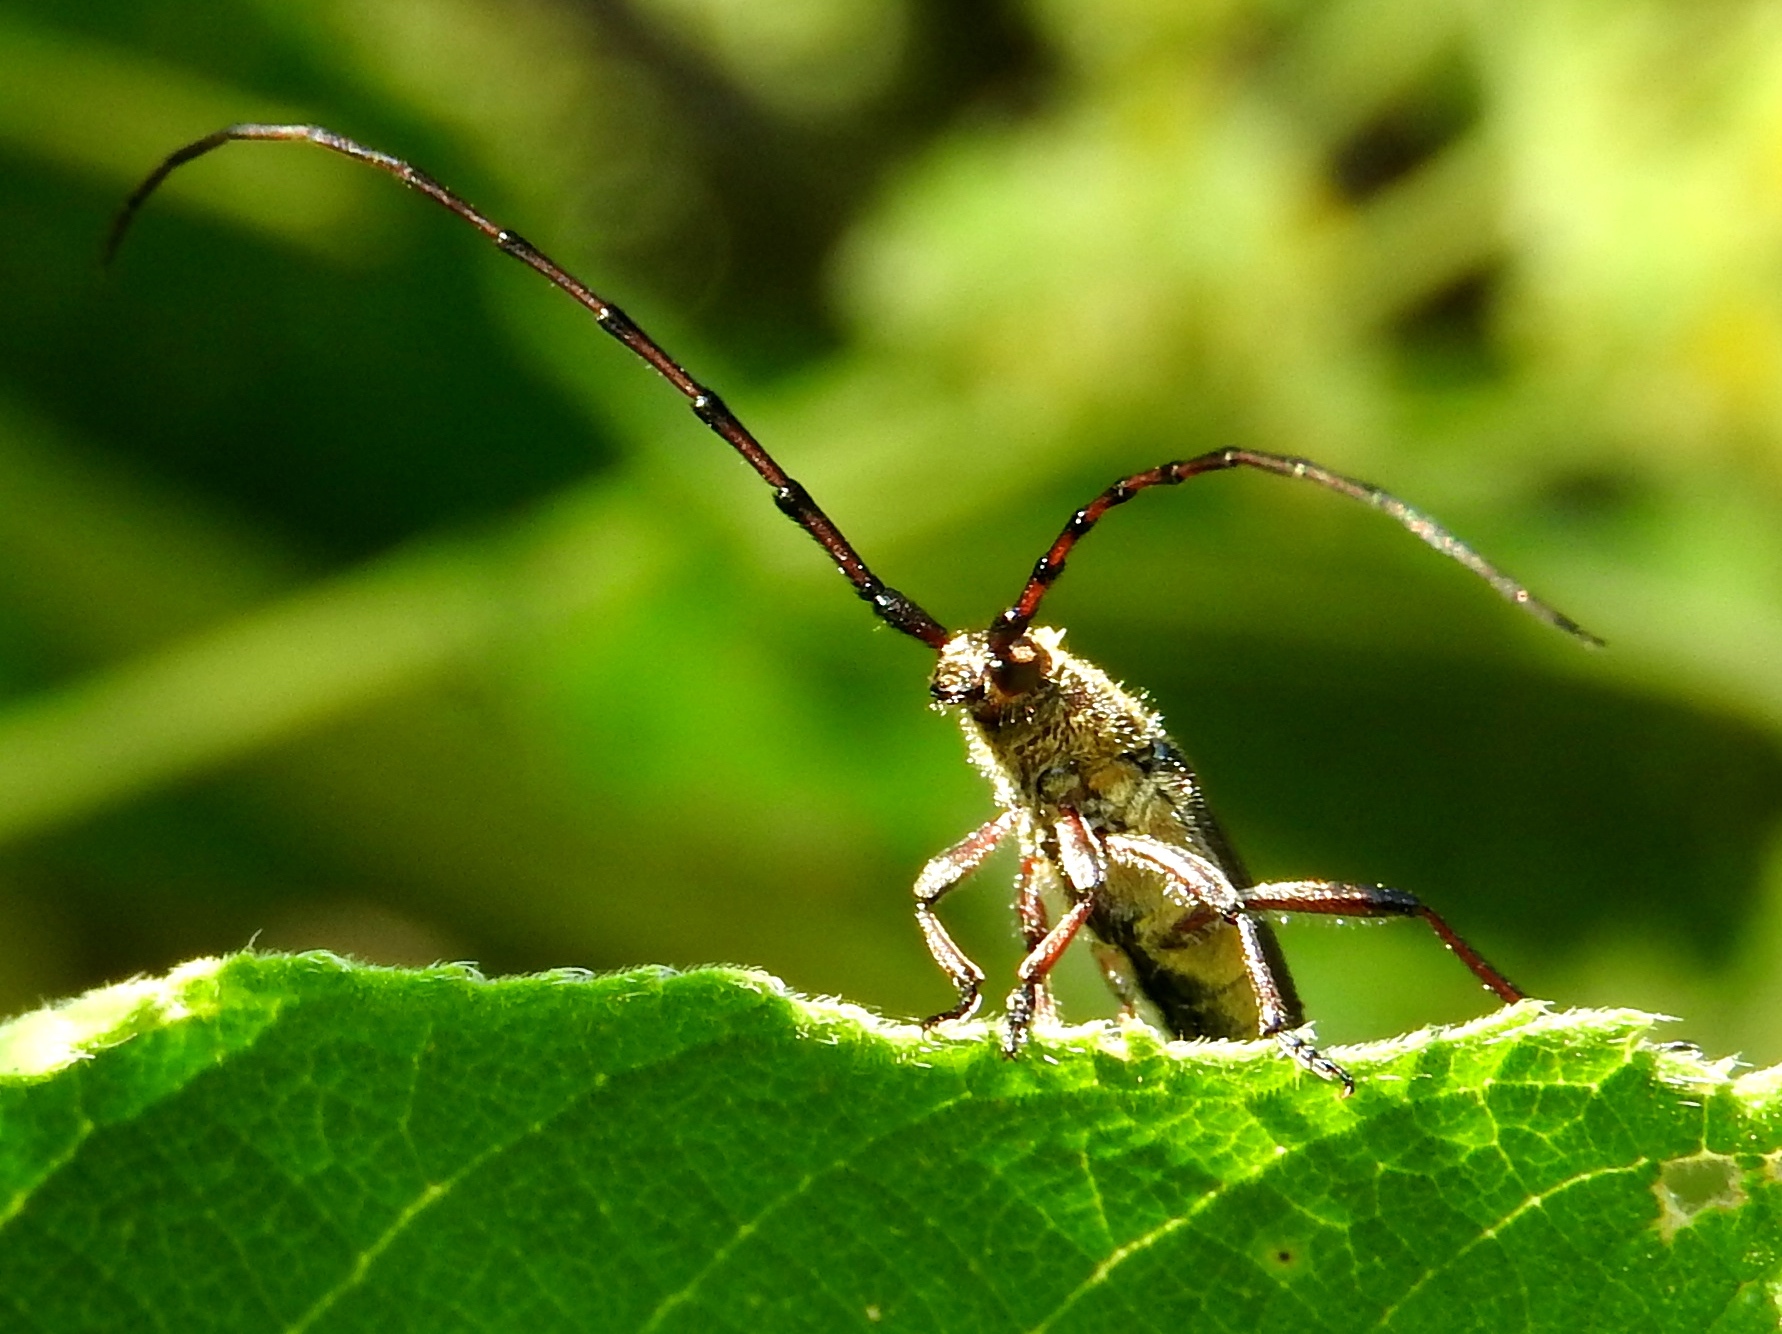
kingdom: Animalia
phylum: Arthropoda
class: Insecta
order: Coleoptera
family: Cerambycidae
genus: Sphaenothecus
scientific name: Sphaenothecus maccartyi
